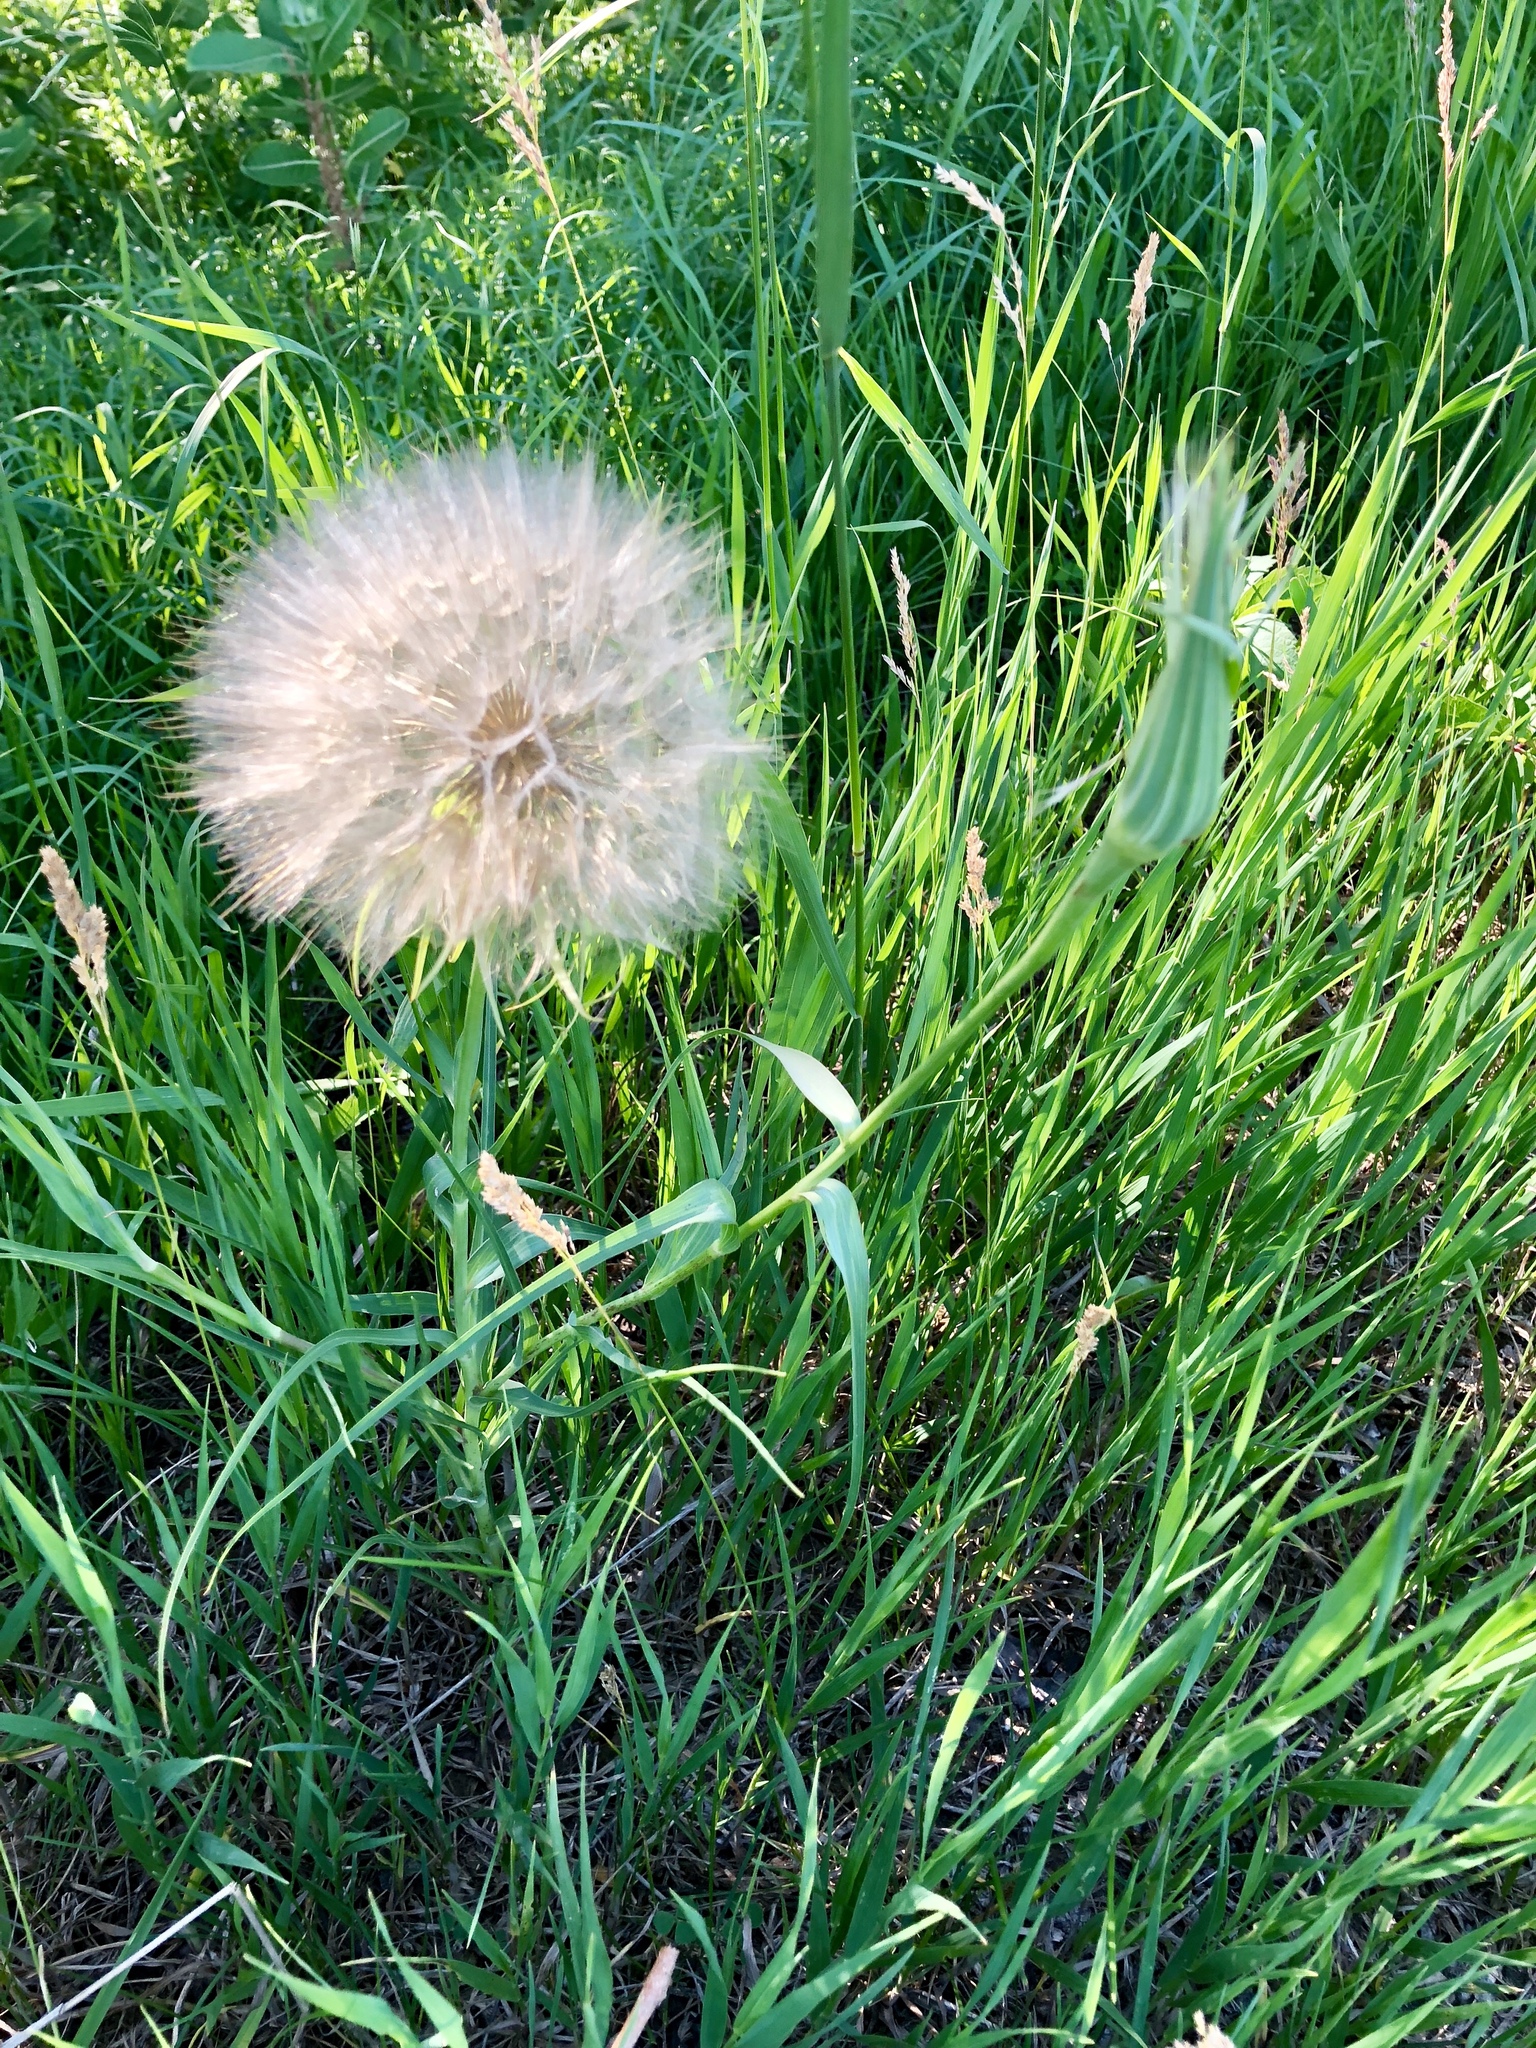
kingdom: Plantae
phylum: Tracheophyta
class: Magnoliopsida
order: Asterales
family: Asteraceae
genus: Tragopogon
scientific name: Tragopogon dubius
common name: Yellow salsify
